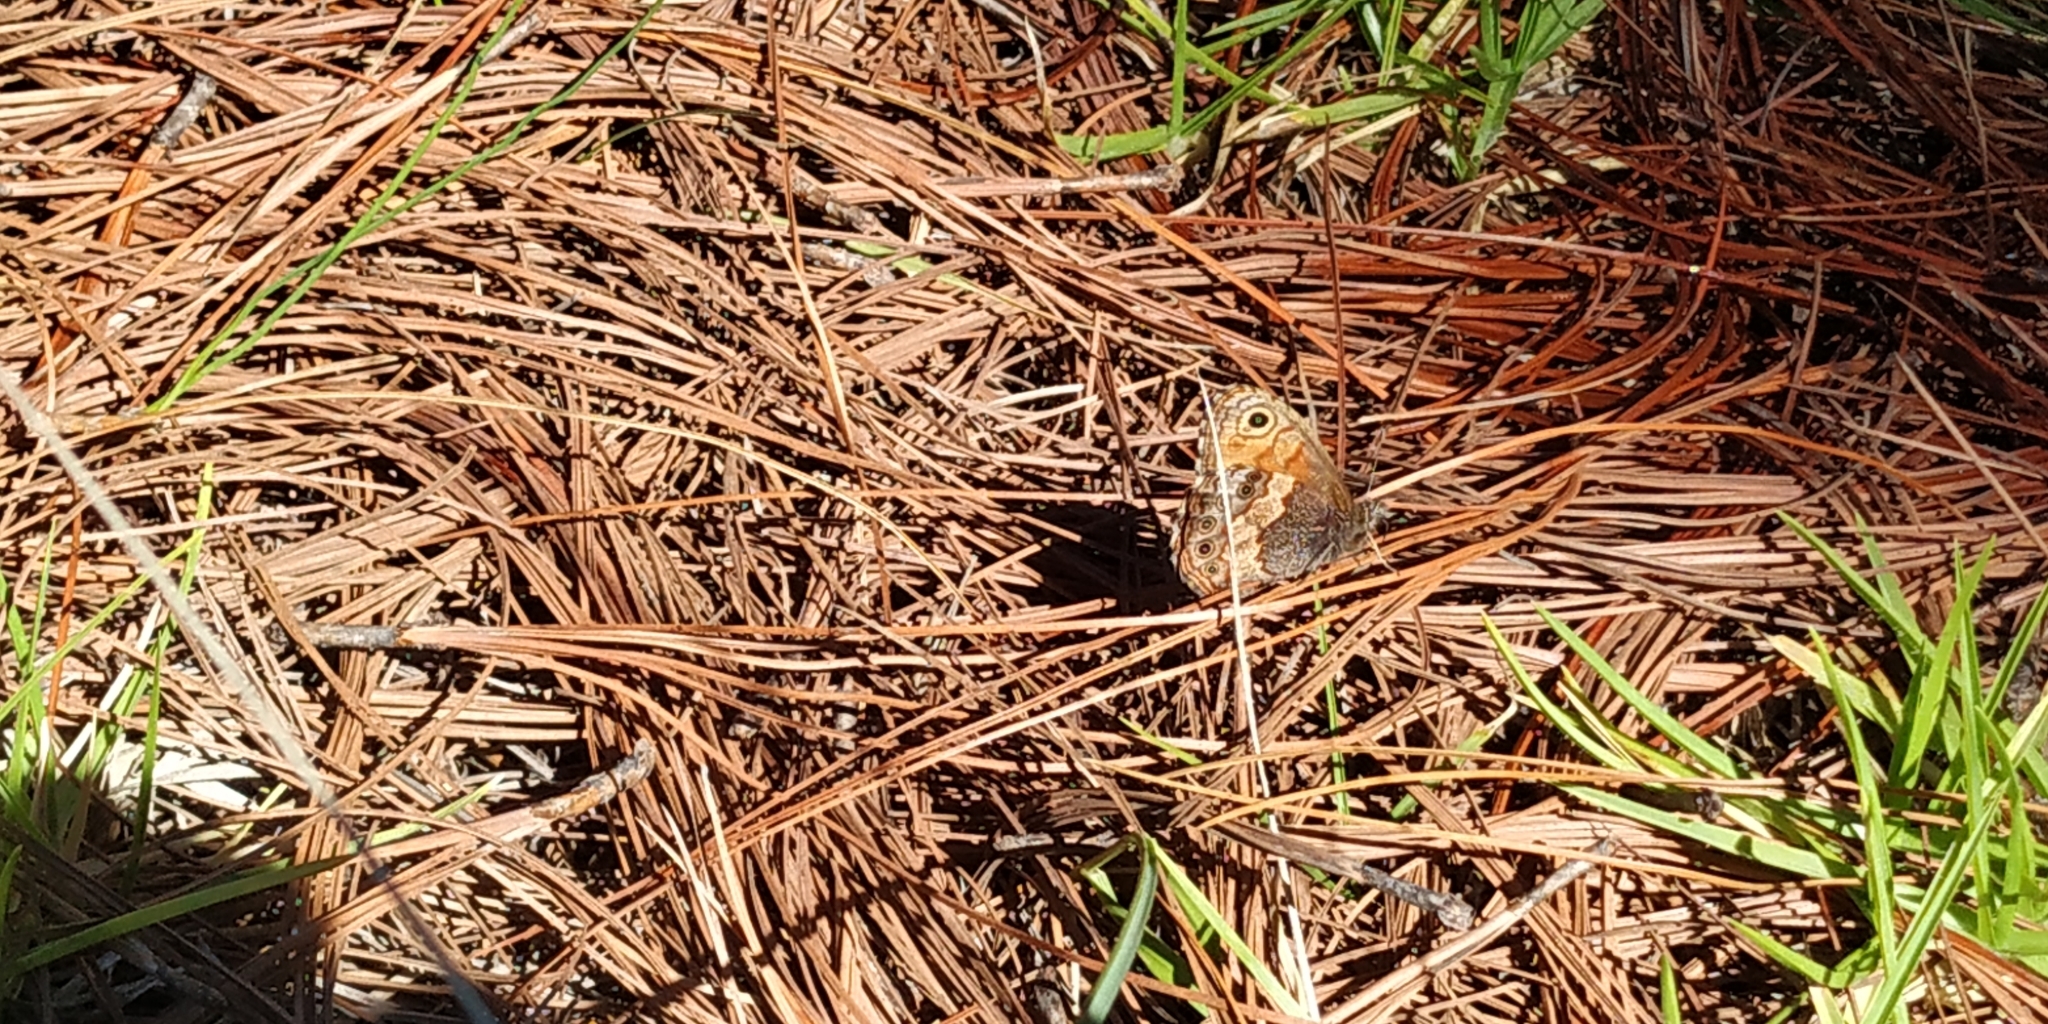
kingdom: Animalia
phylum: Arthropoda
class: Insecta
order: Lepidoptera
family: Nymphalidae
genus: Paramecera
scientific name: Paramecera xicaque
